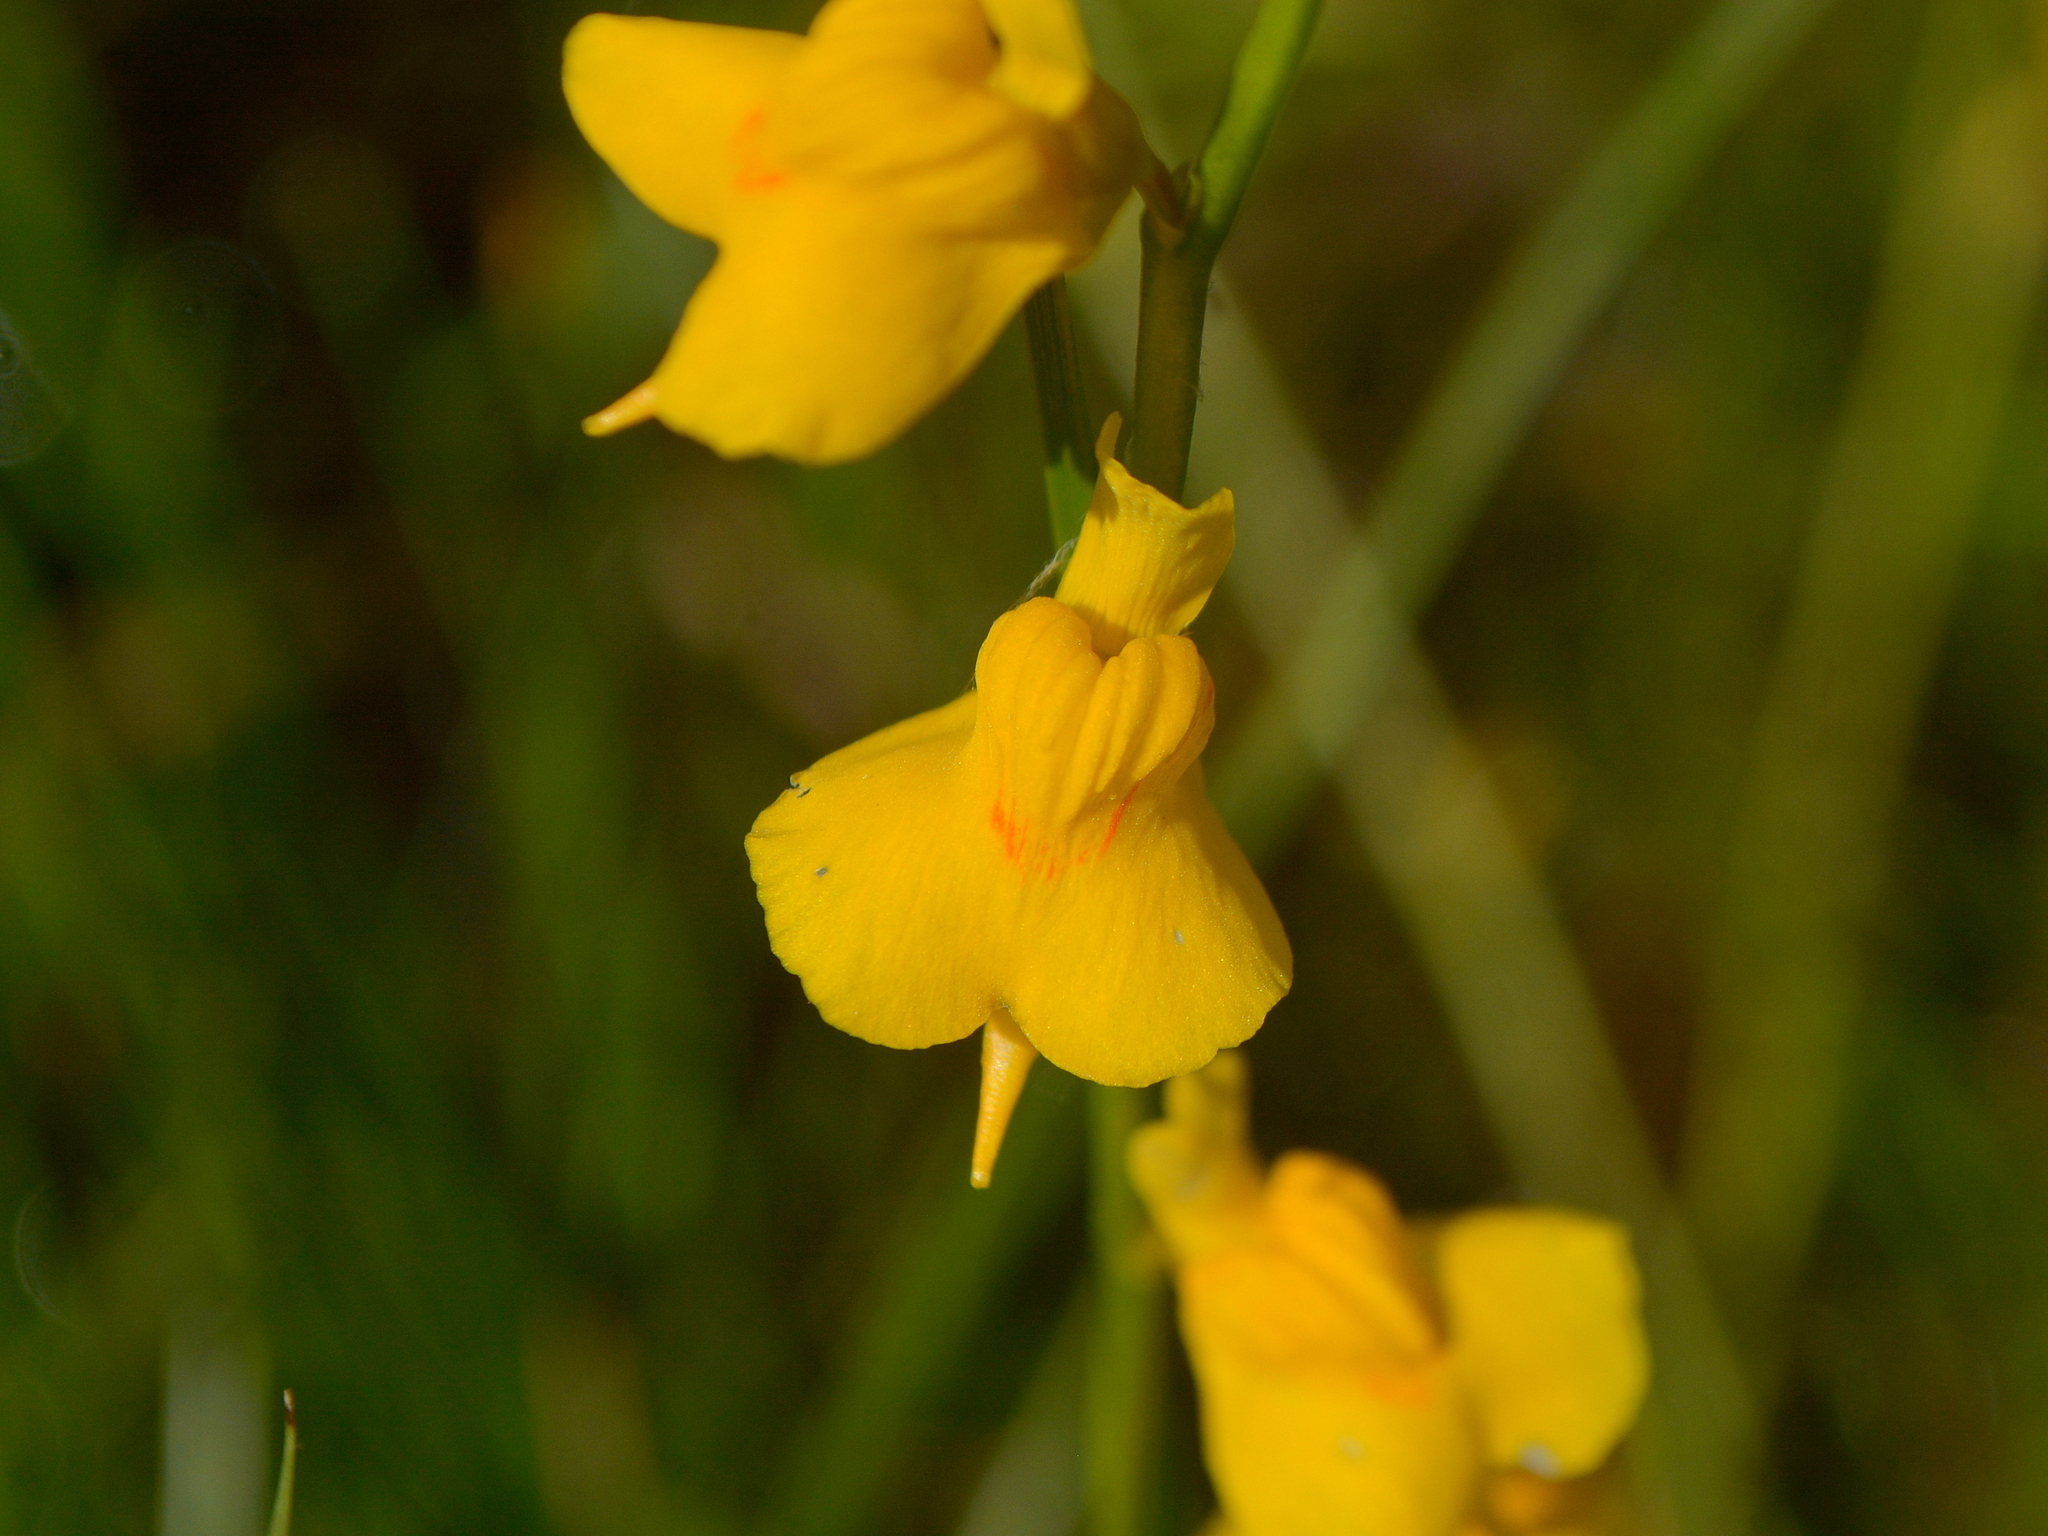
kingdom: Plantae
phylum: Tracheophyta
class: Magnoliopsida
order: Lamiales
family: Lentibulariaceae
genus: Utricularia
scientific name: Utricularia laxa
